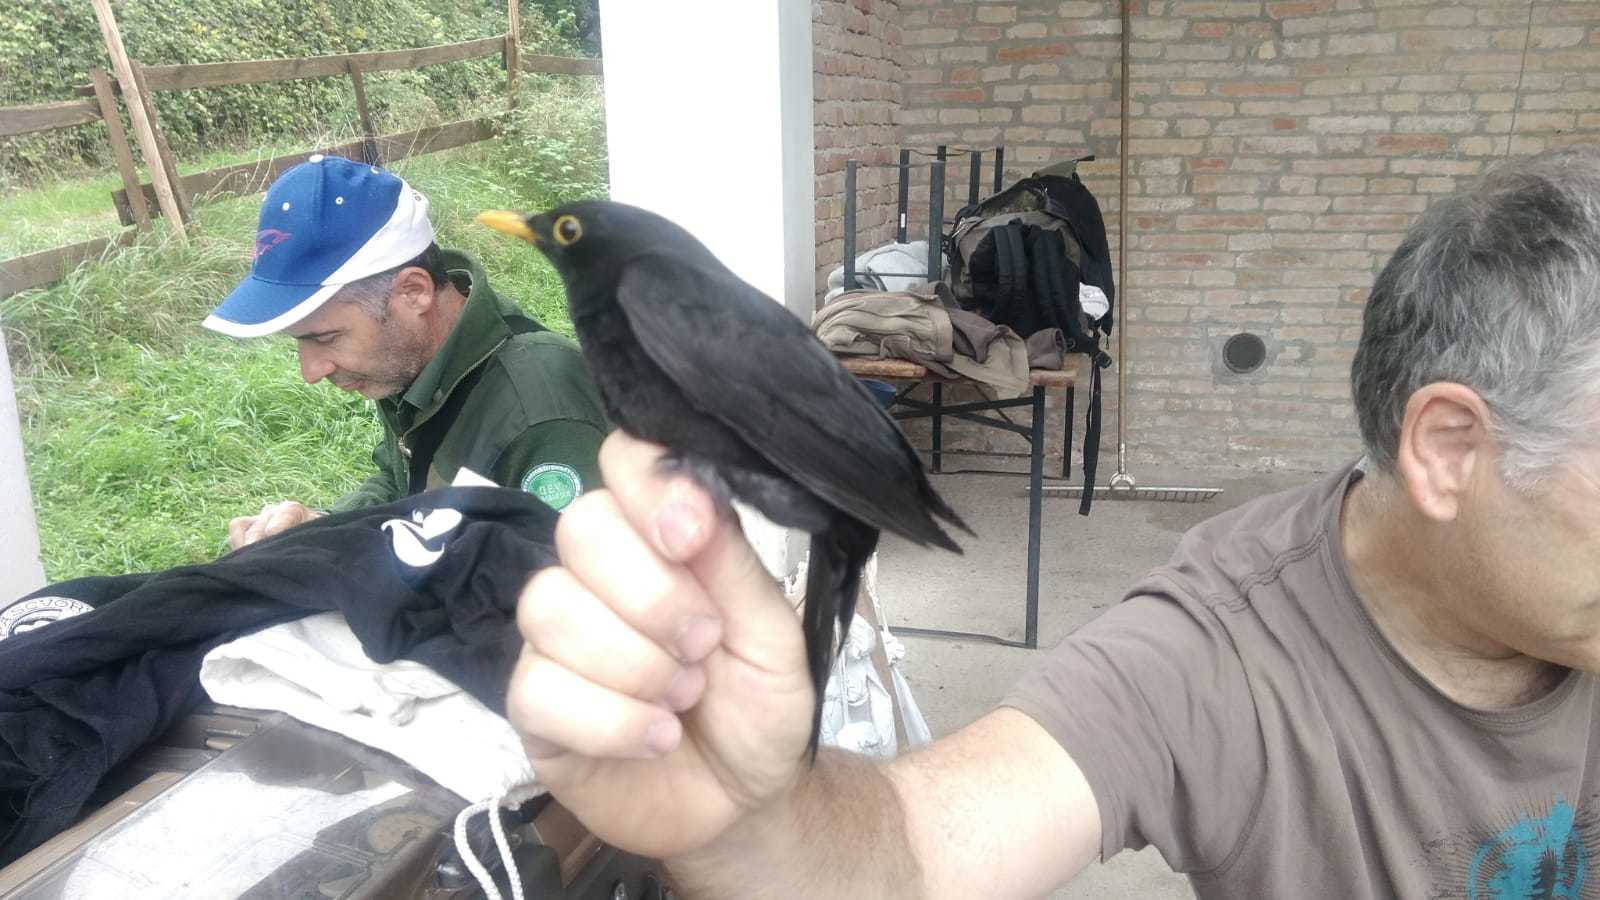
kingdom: Animalia
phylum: Chordata
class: Aves
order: Passeriformes
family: Turdidae
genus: Turdus
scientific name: Turdus merula
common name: Common blackbird
